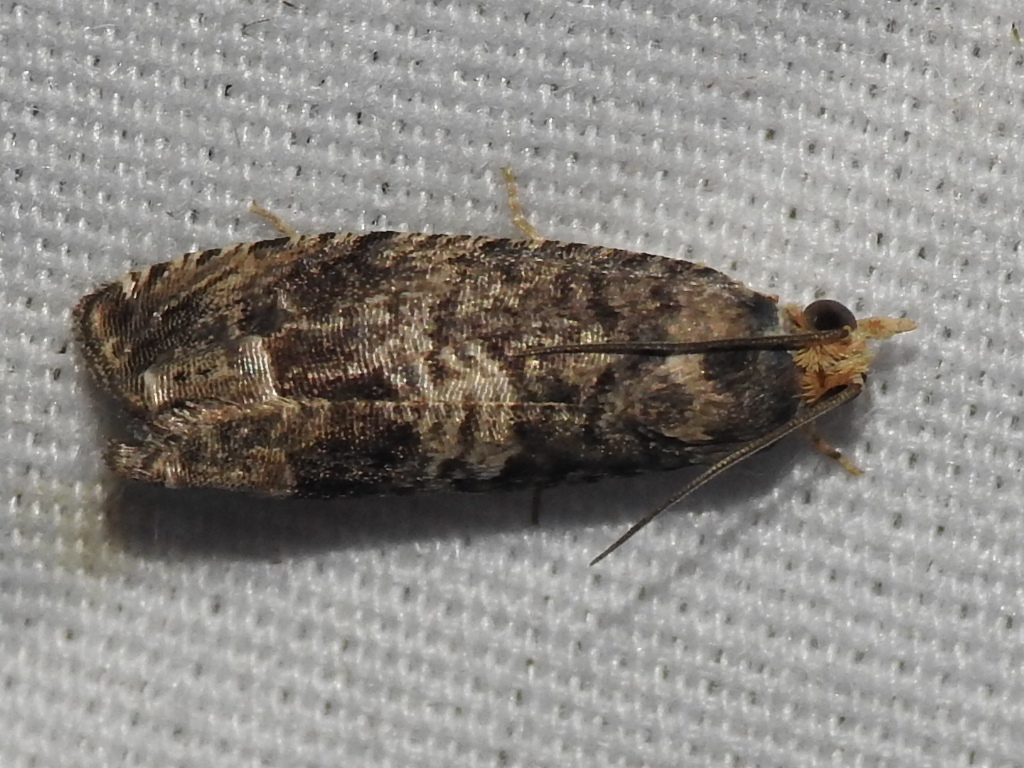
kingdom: Animalia
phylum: Arthropoda
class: Insecta
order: Lepidoptera
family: Tortricidae
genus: Cydia
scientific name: Cydia membrosa
